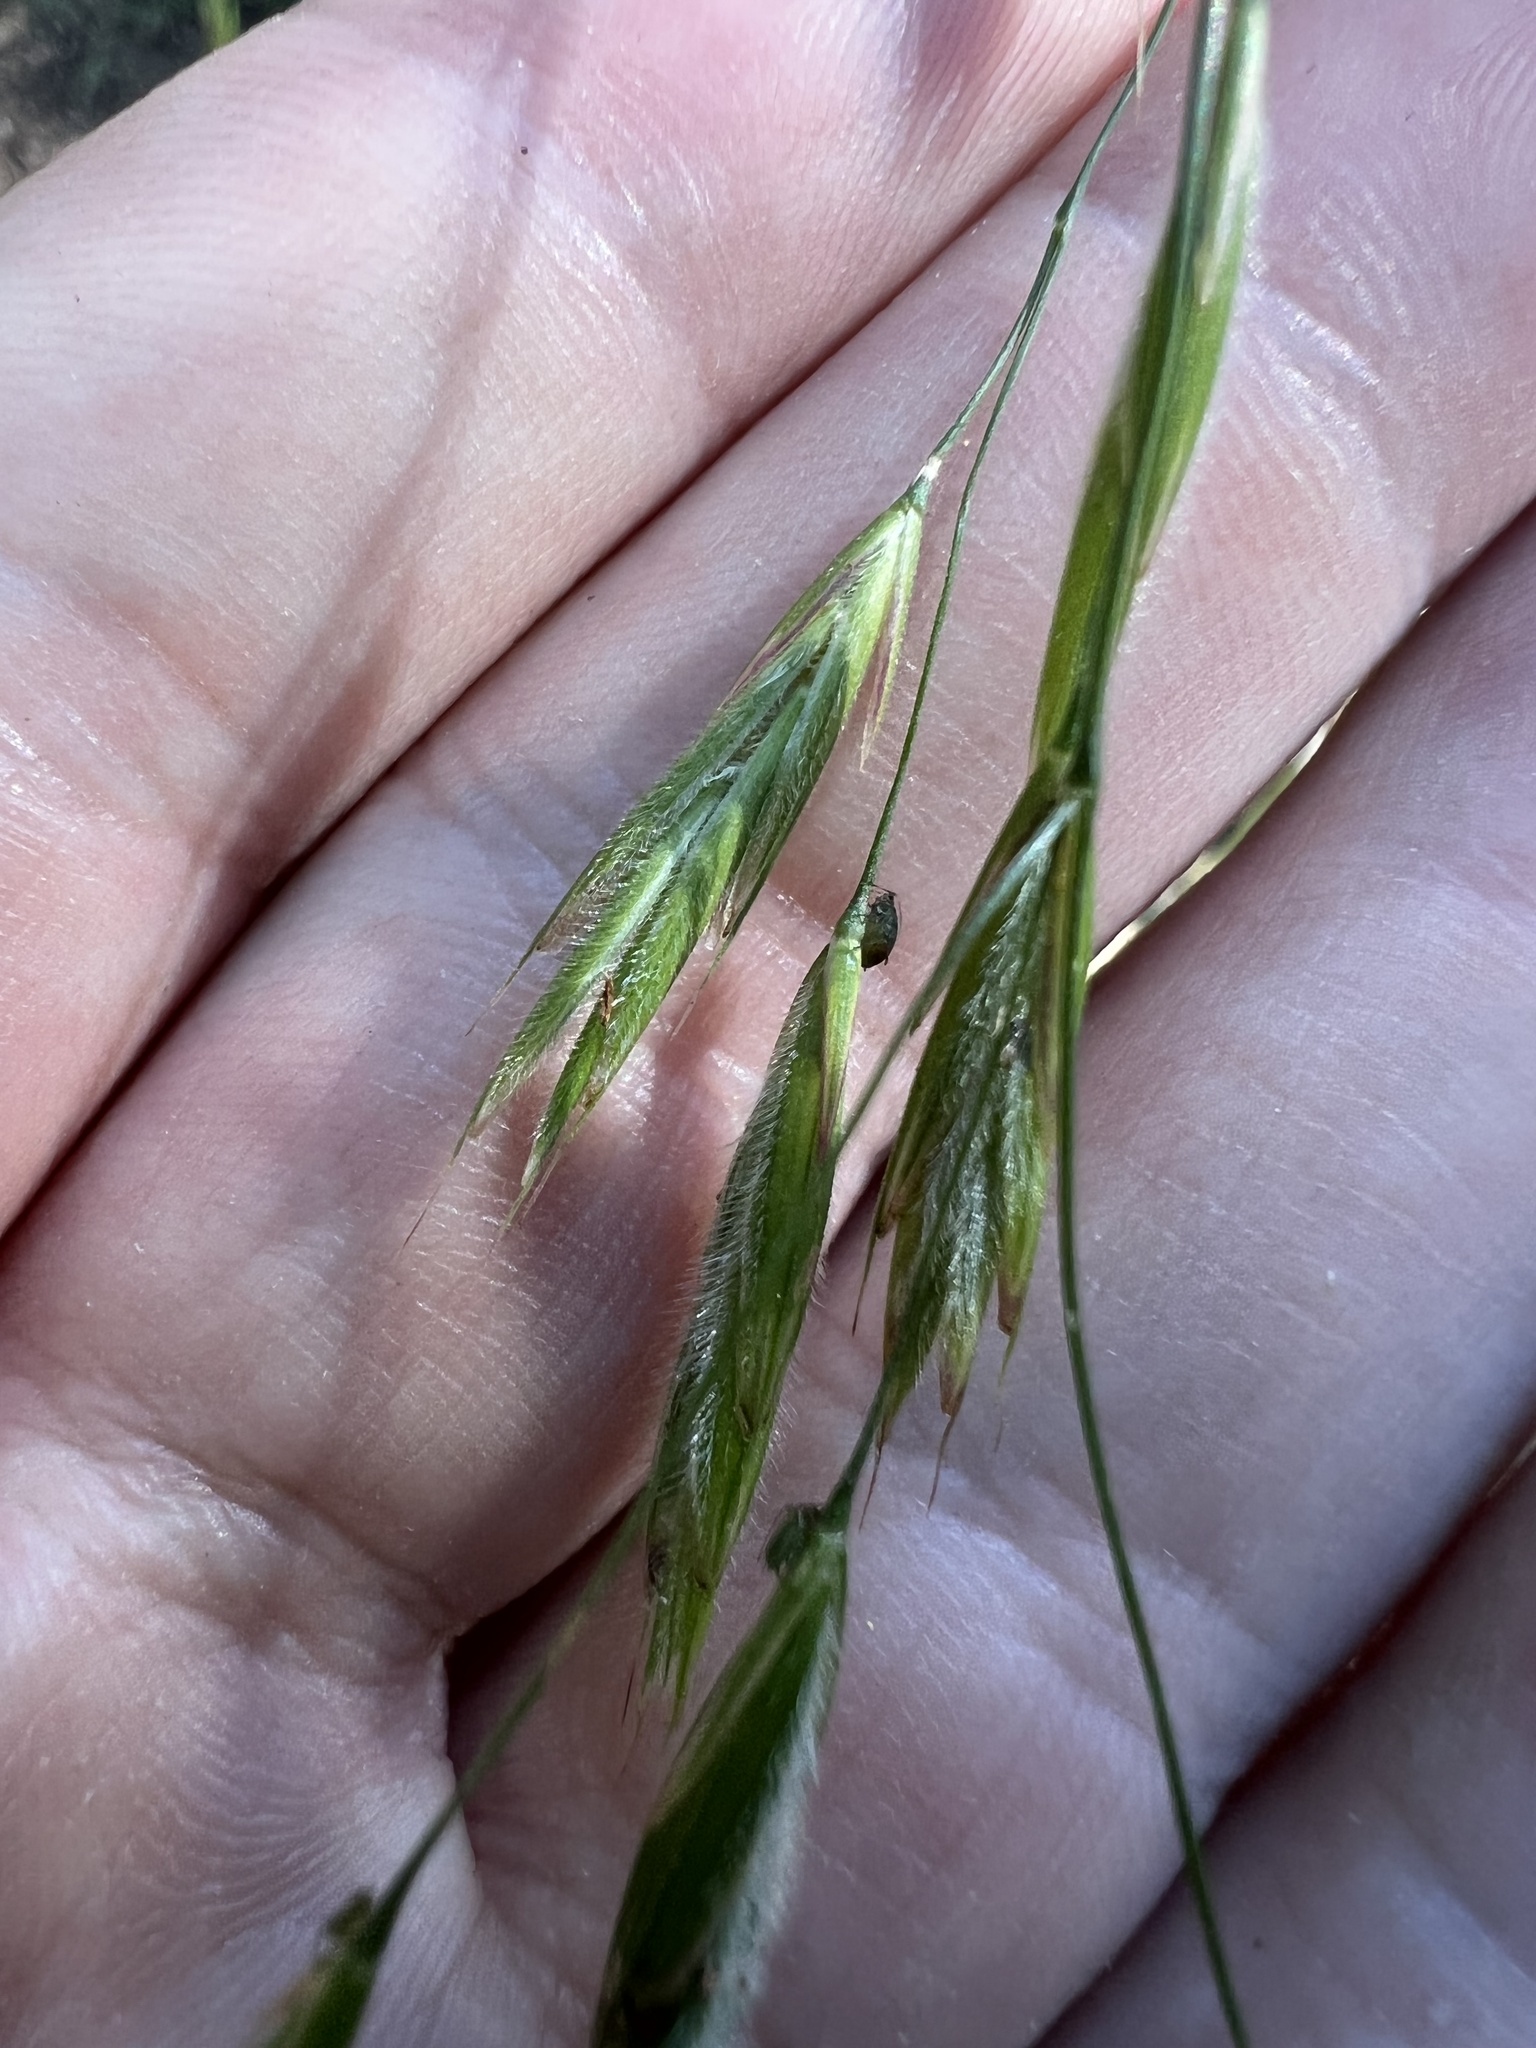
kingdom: Plantae
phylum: Tracheophyta
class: Liliopsida
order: Poales
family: Poaceae
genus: Bromus
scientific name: Bromus ciliatus
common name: Fringe brome
